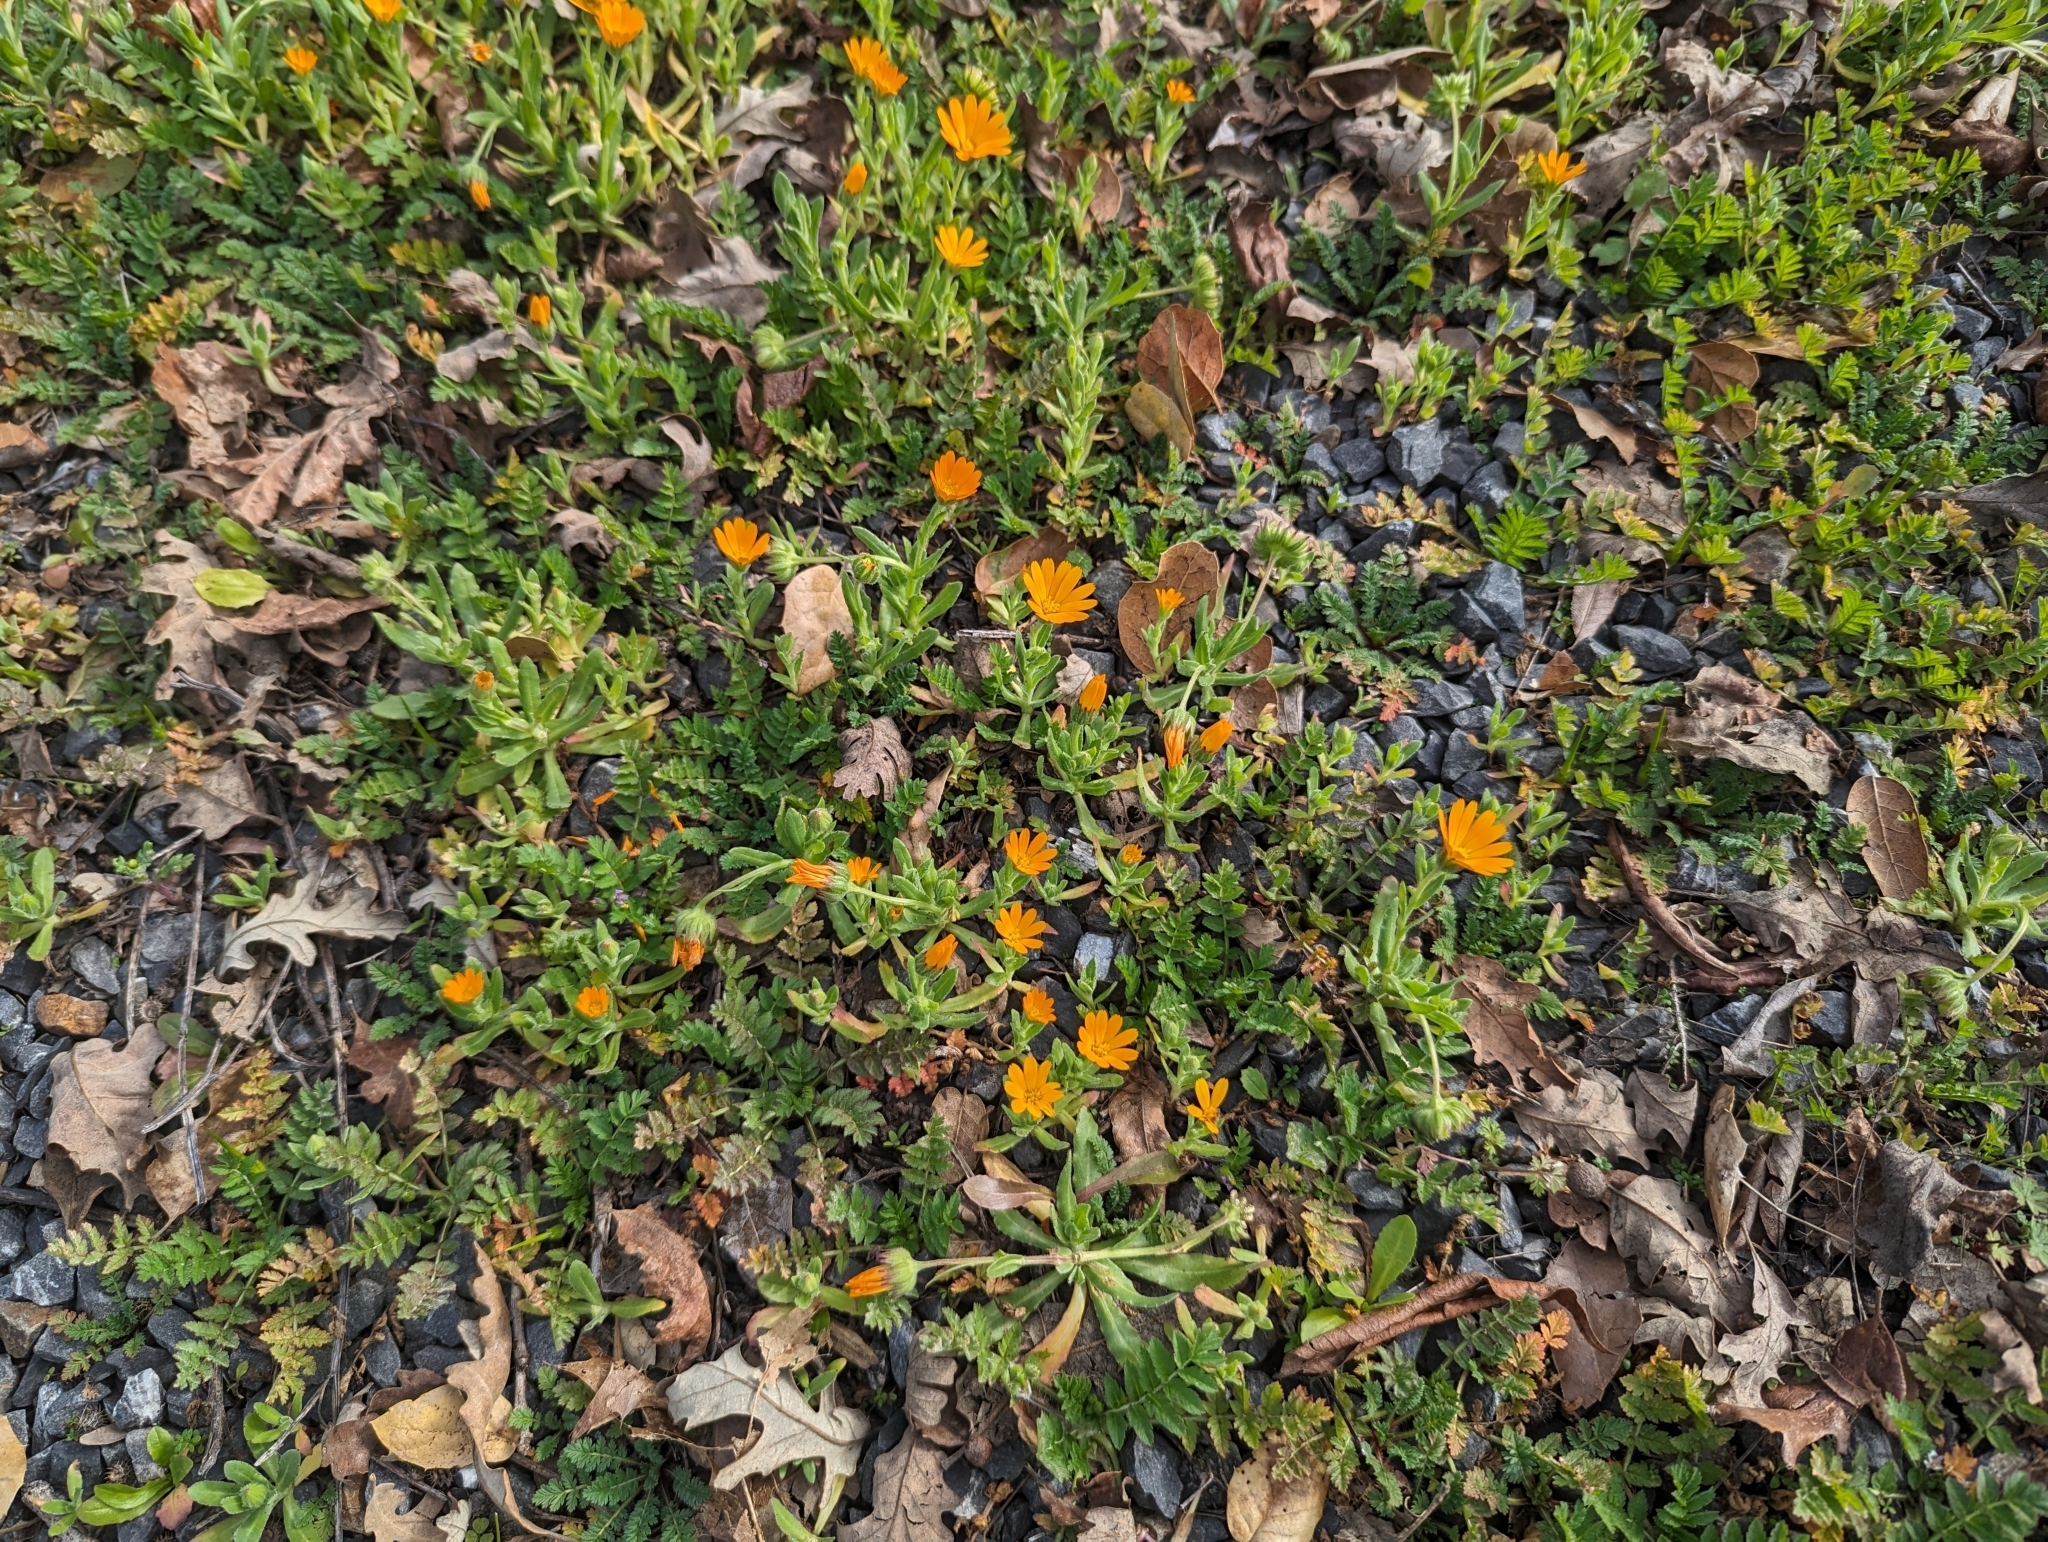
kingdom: Plantae
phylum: Tracheophyta
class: Magnoliopsida
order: Asterales
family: Asteraceae
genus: Calendula
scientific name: Calendula arvensis
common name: Field marigold
